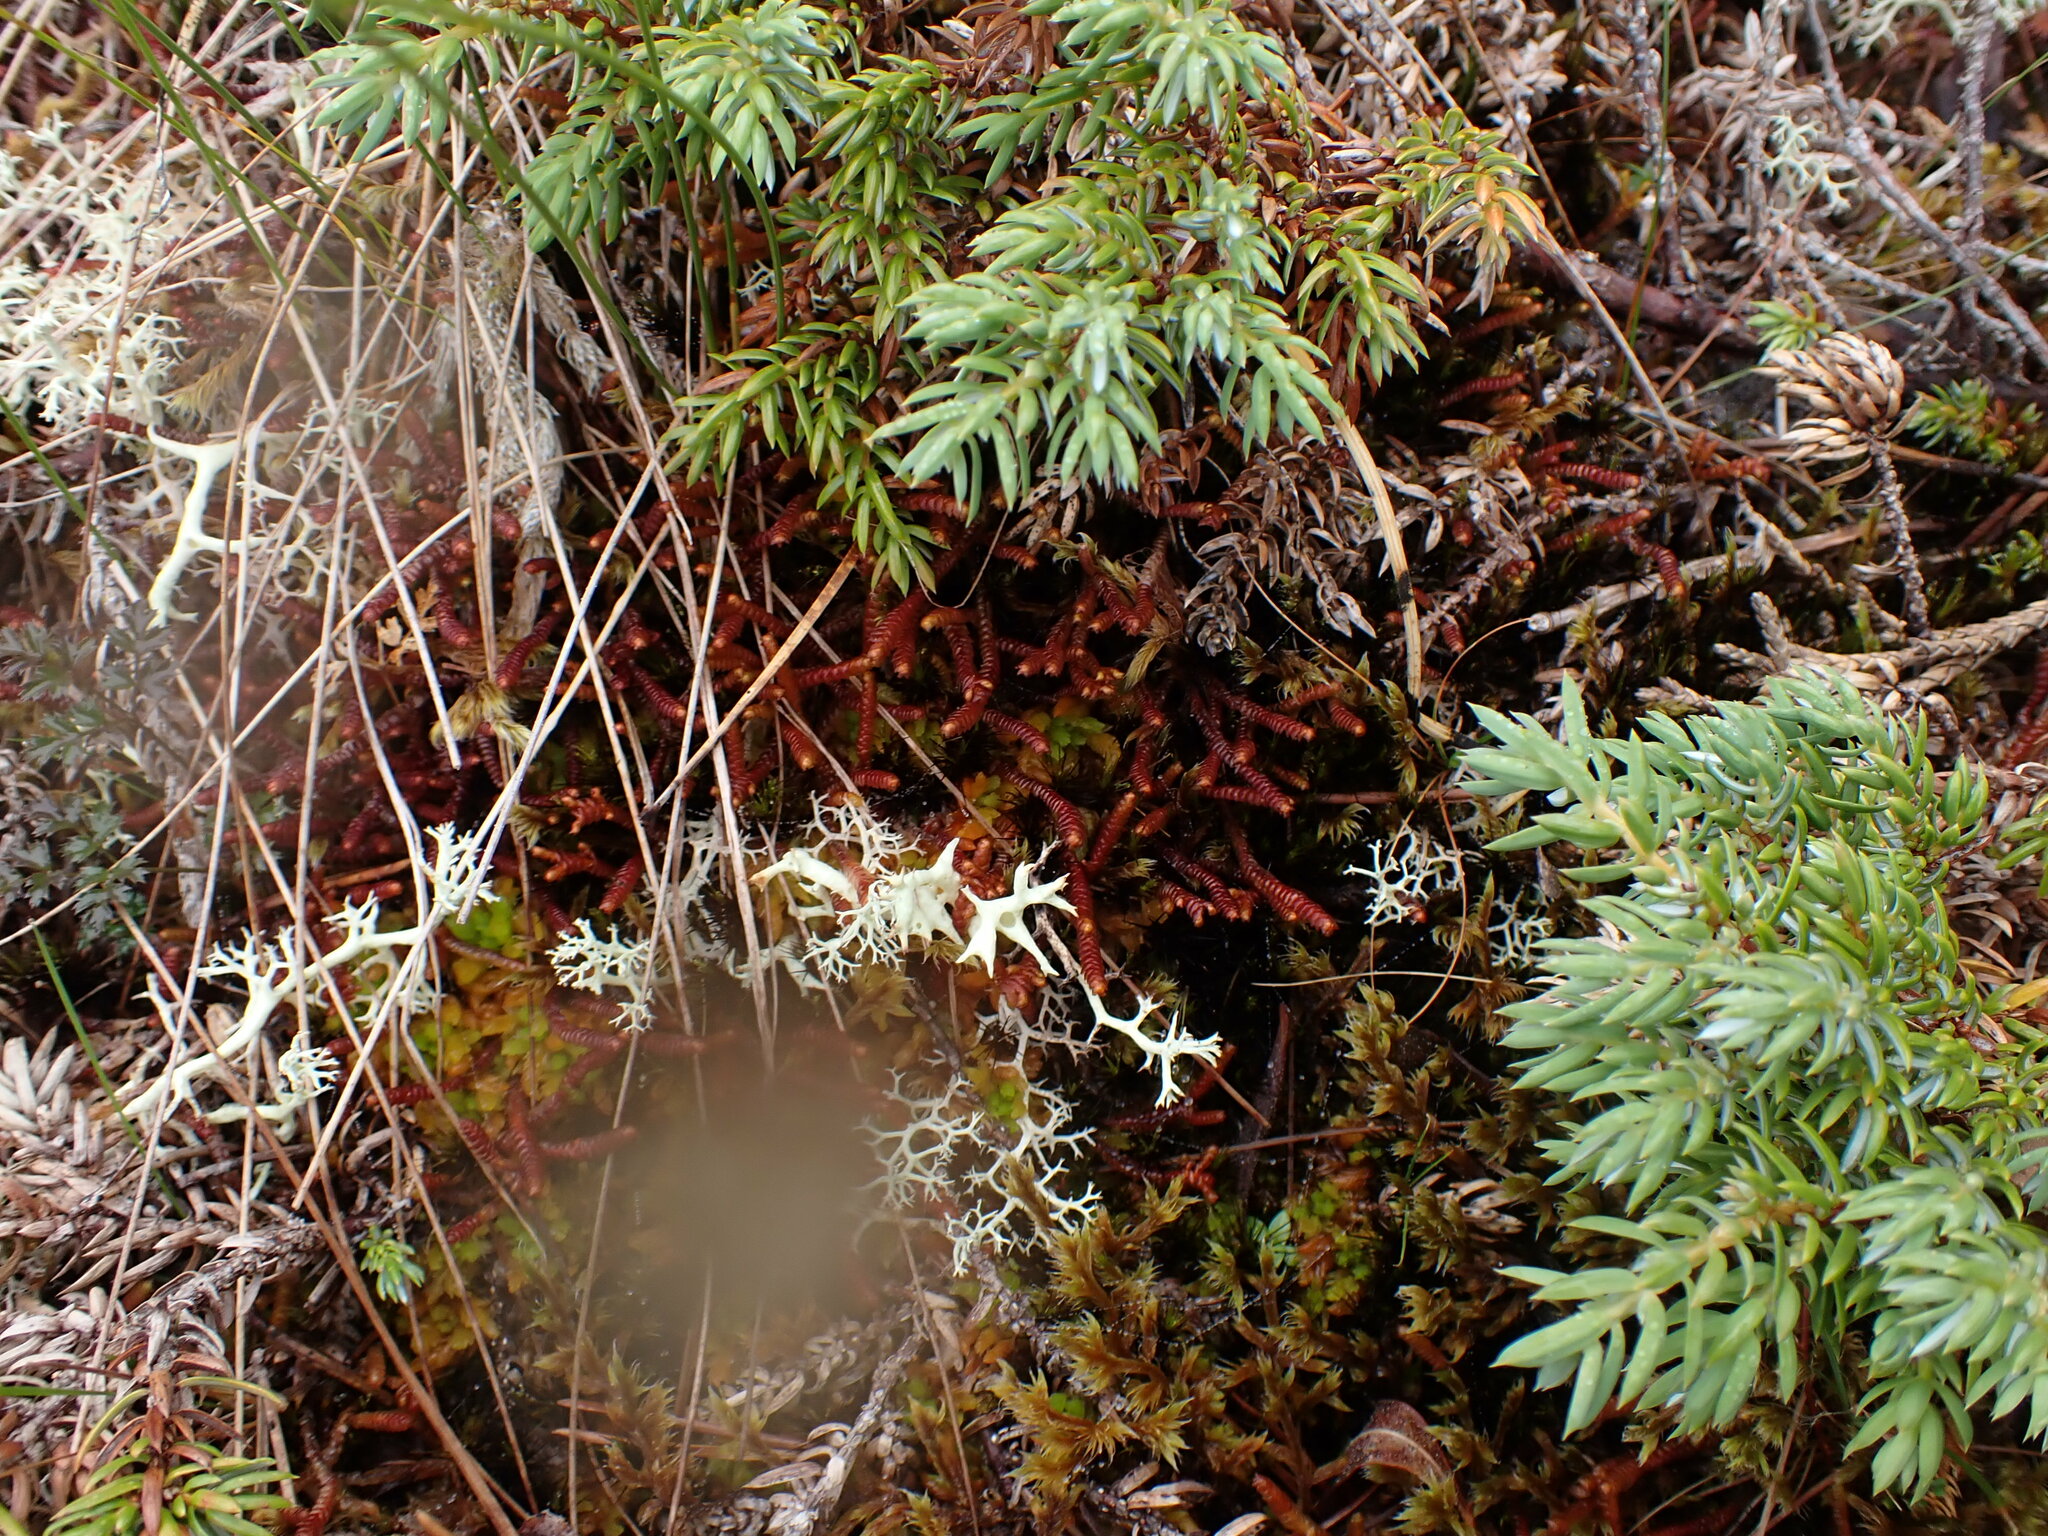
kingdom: Plantae
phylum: Marchantiophyta
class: Jungermanniopsida
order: Pleuroziales
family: Pleuroziaceae
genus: Pleurozia
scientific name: Pleurozia purpurea
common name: Purple spoonwort
